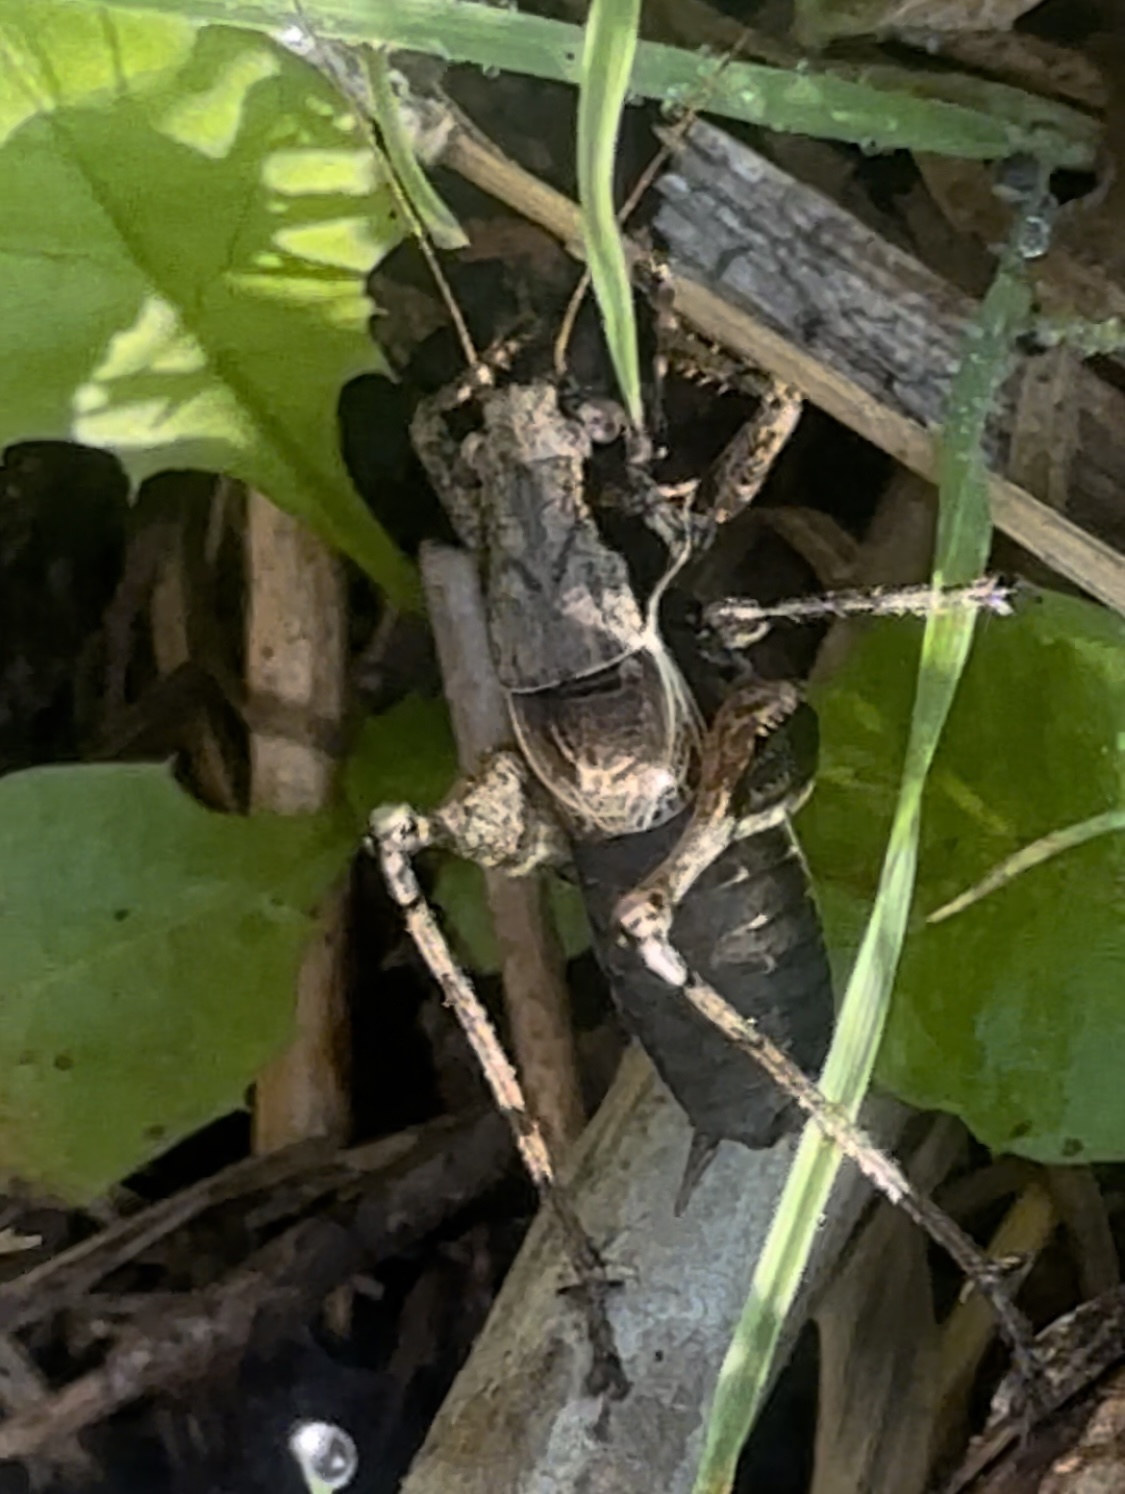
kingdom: Animalia
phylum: Arthropoda
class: Insecta
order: Orthoptera
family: Tettigoniidae
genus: Pholidoptera
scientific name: Pholidoptera griseoaptera
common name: Dark bush-cricket
